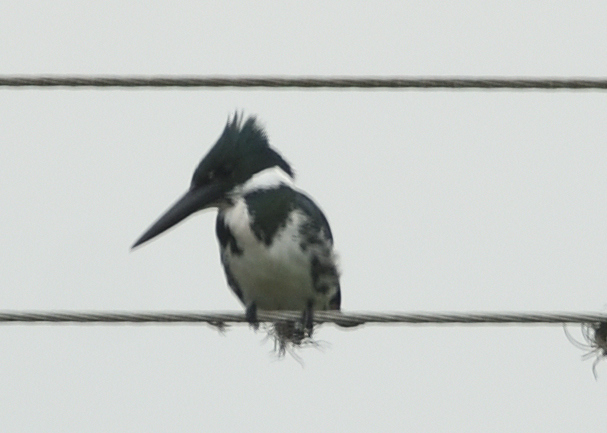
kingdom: Animalia
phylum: Chordata
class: Aves
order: Coraciiformes
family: Alcedinidae
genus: Chloroceryle
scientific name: Chloroceryle amazona
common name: Amazon kingfisher
